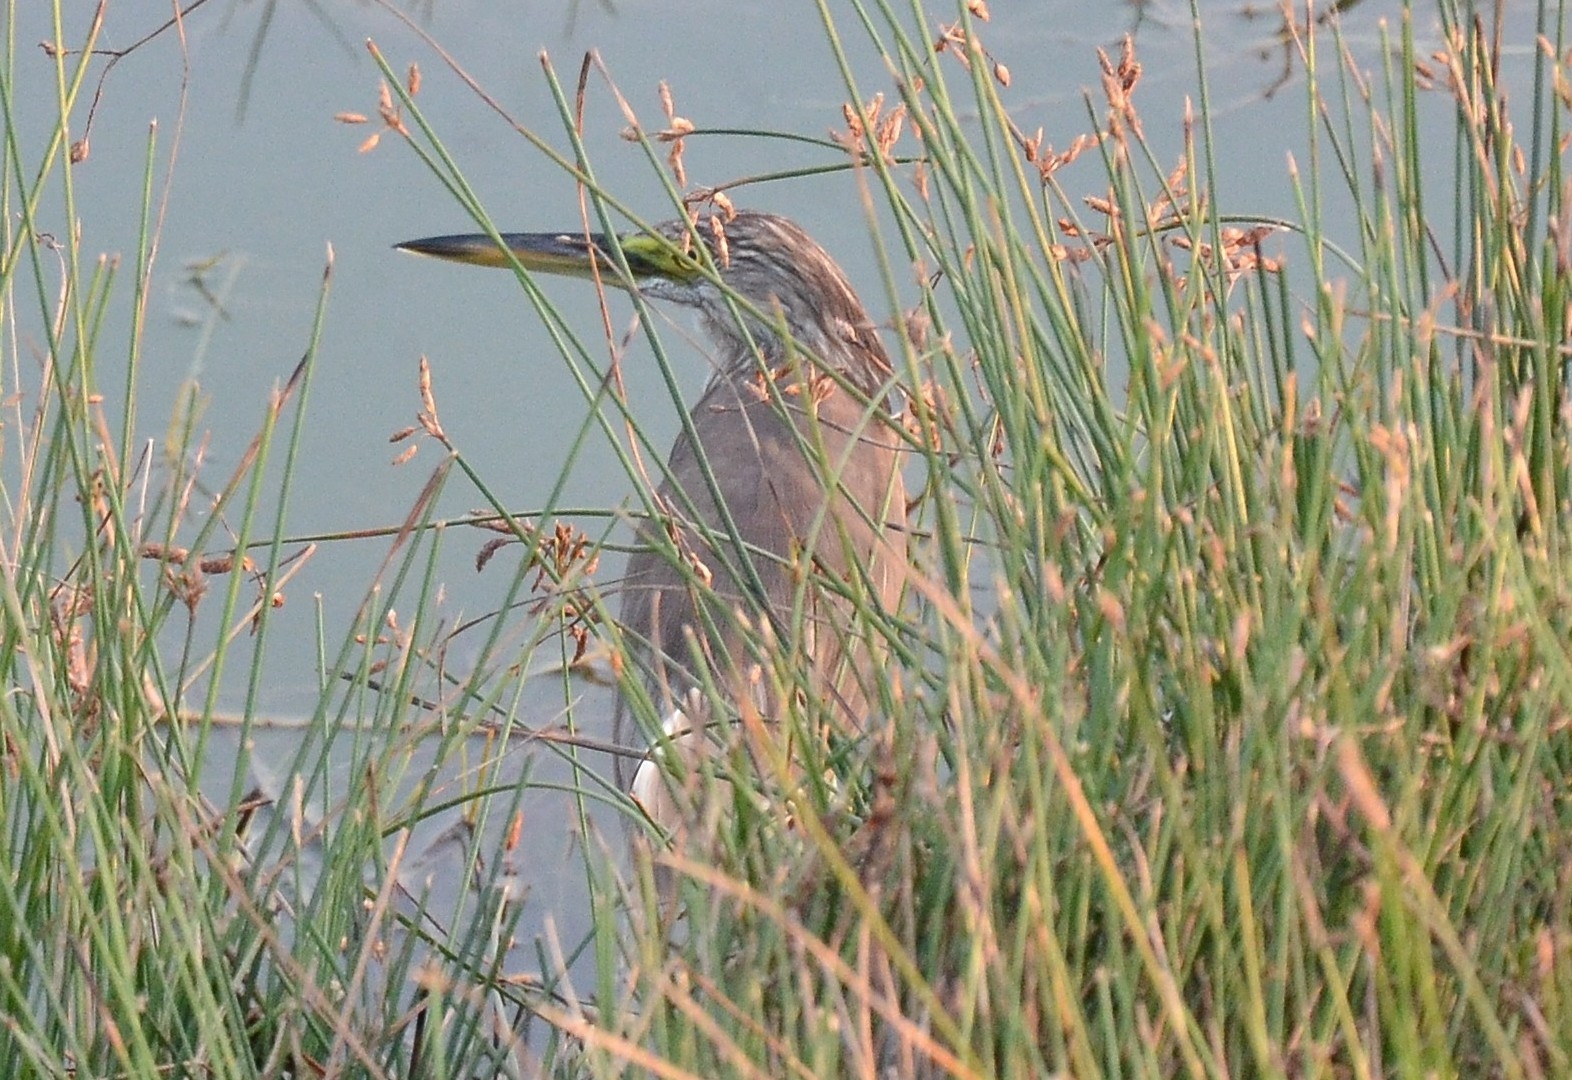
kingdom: Animalia
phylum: Chordata
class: Aves
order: Pelecaniformes
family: Ardeidae
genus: Ardeola
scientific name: Ardeola grayii
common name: Indian pond heron
